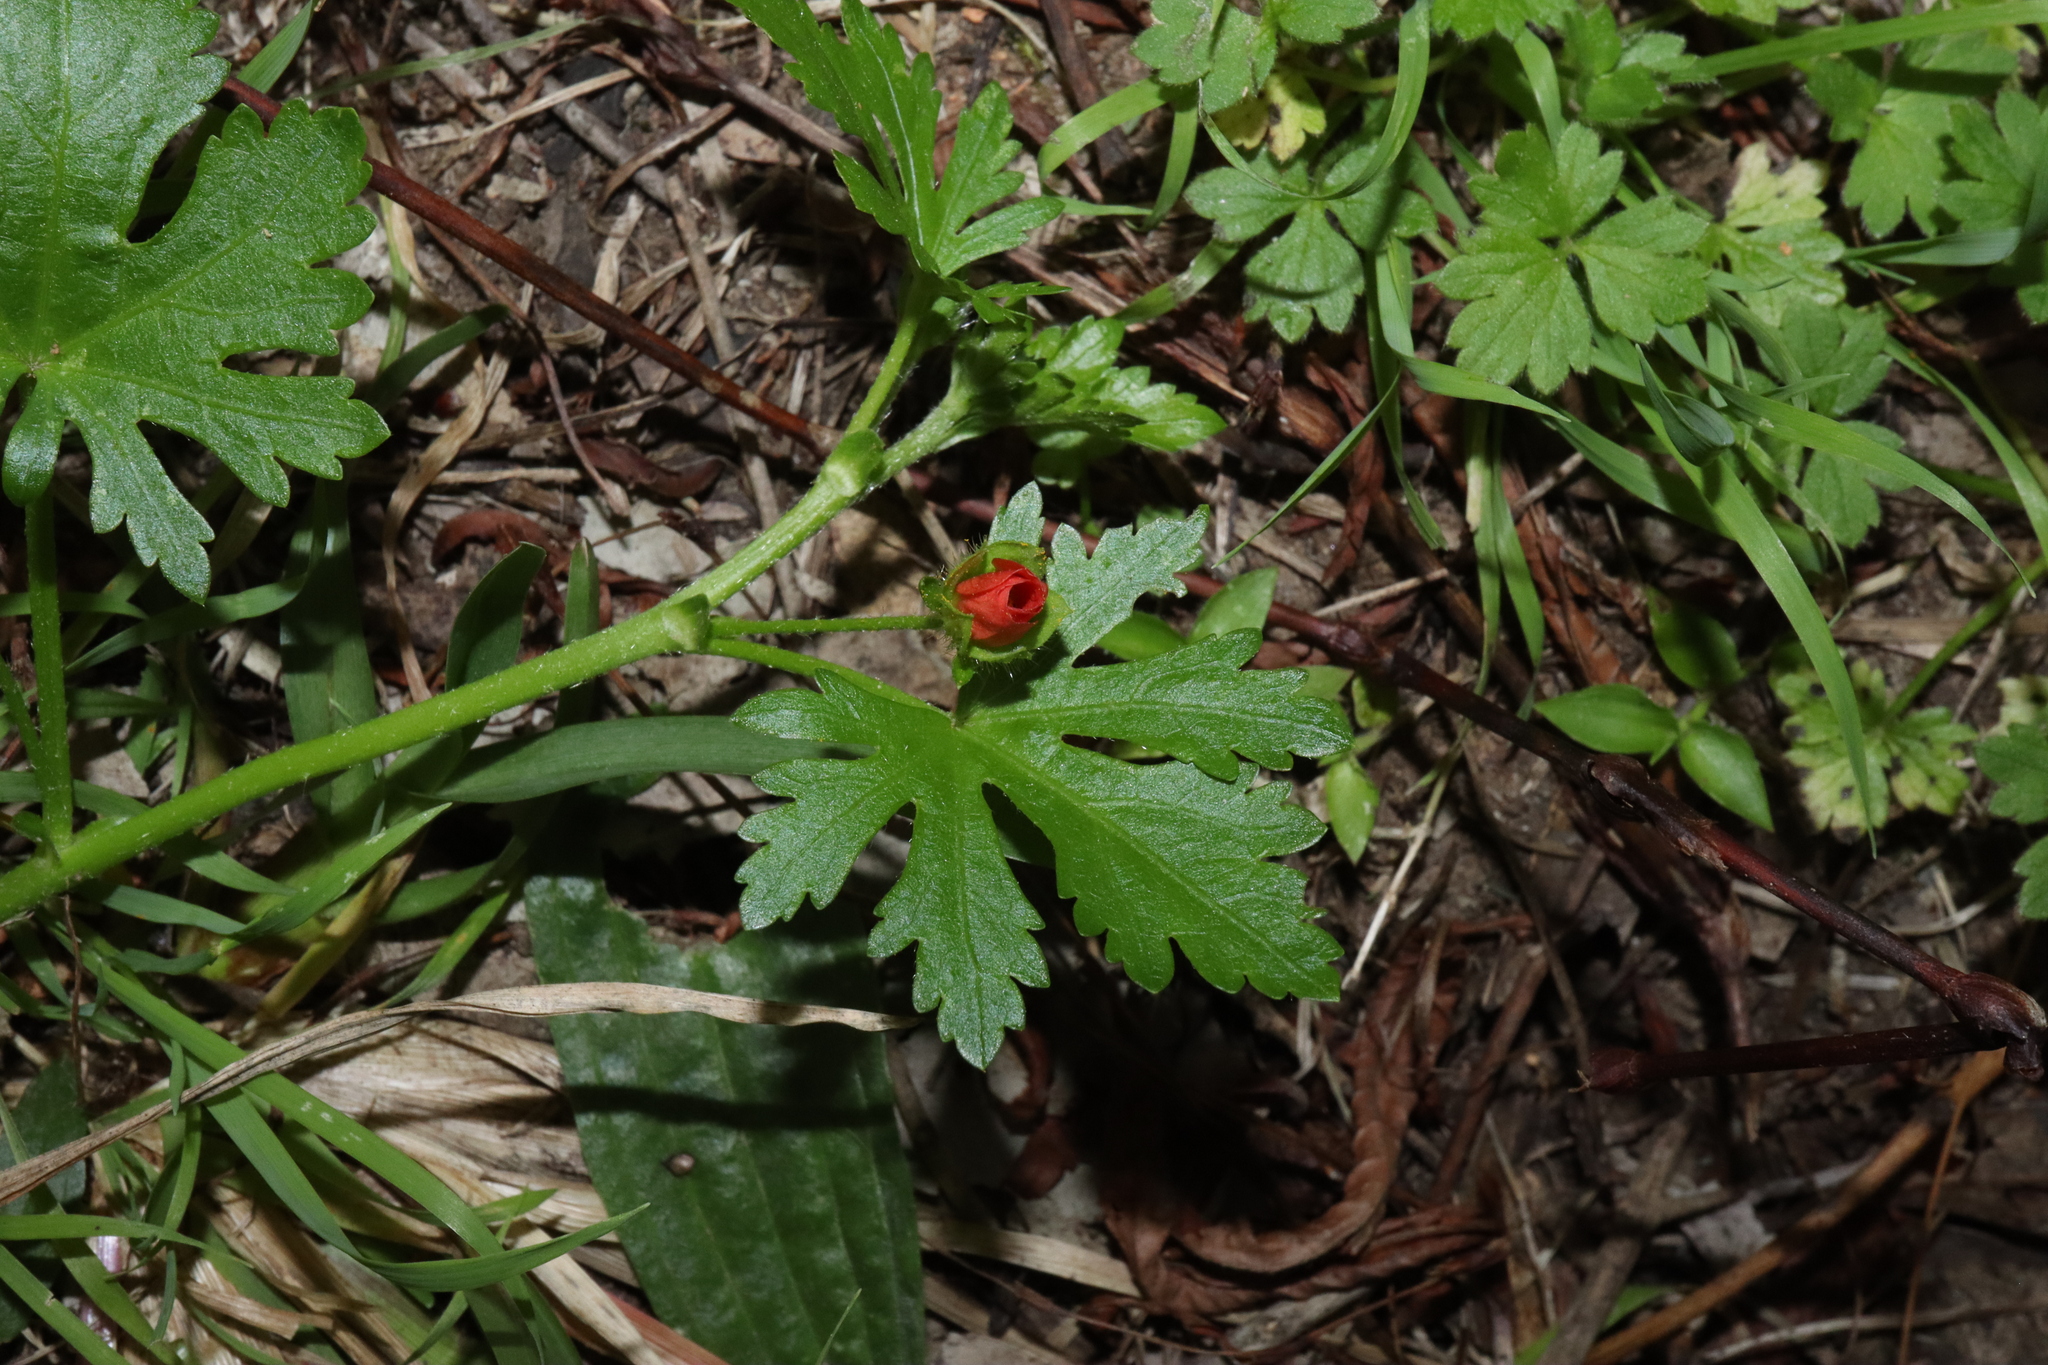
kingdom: Plantae
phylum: Tracheophyta
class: Magnoliopsida
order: Malvales
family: Malvaceae
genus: Modiola
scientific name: Modiola caroliniana
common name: Carolina bristlemallow
